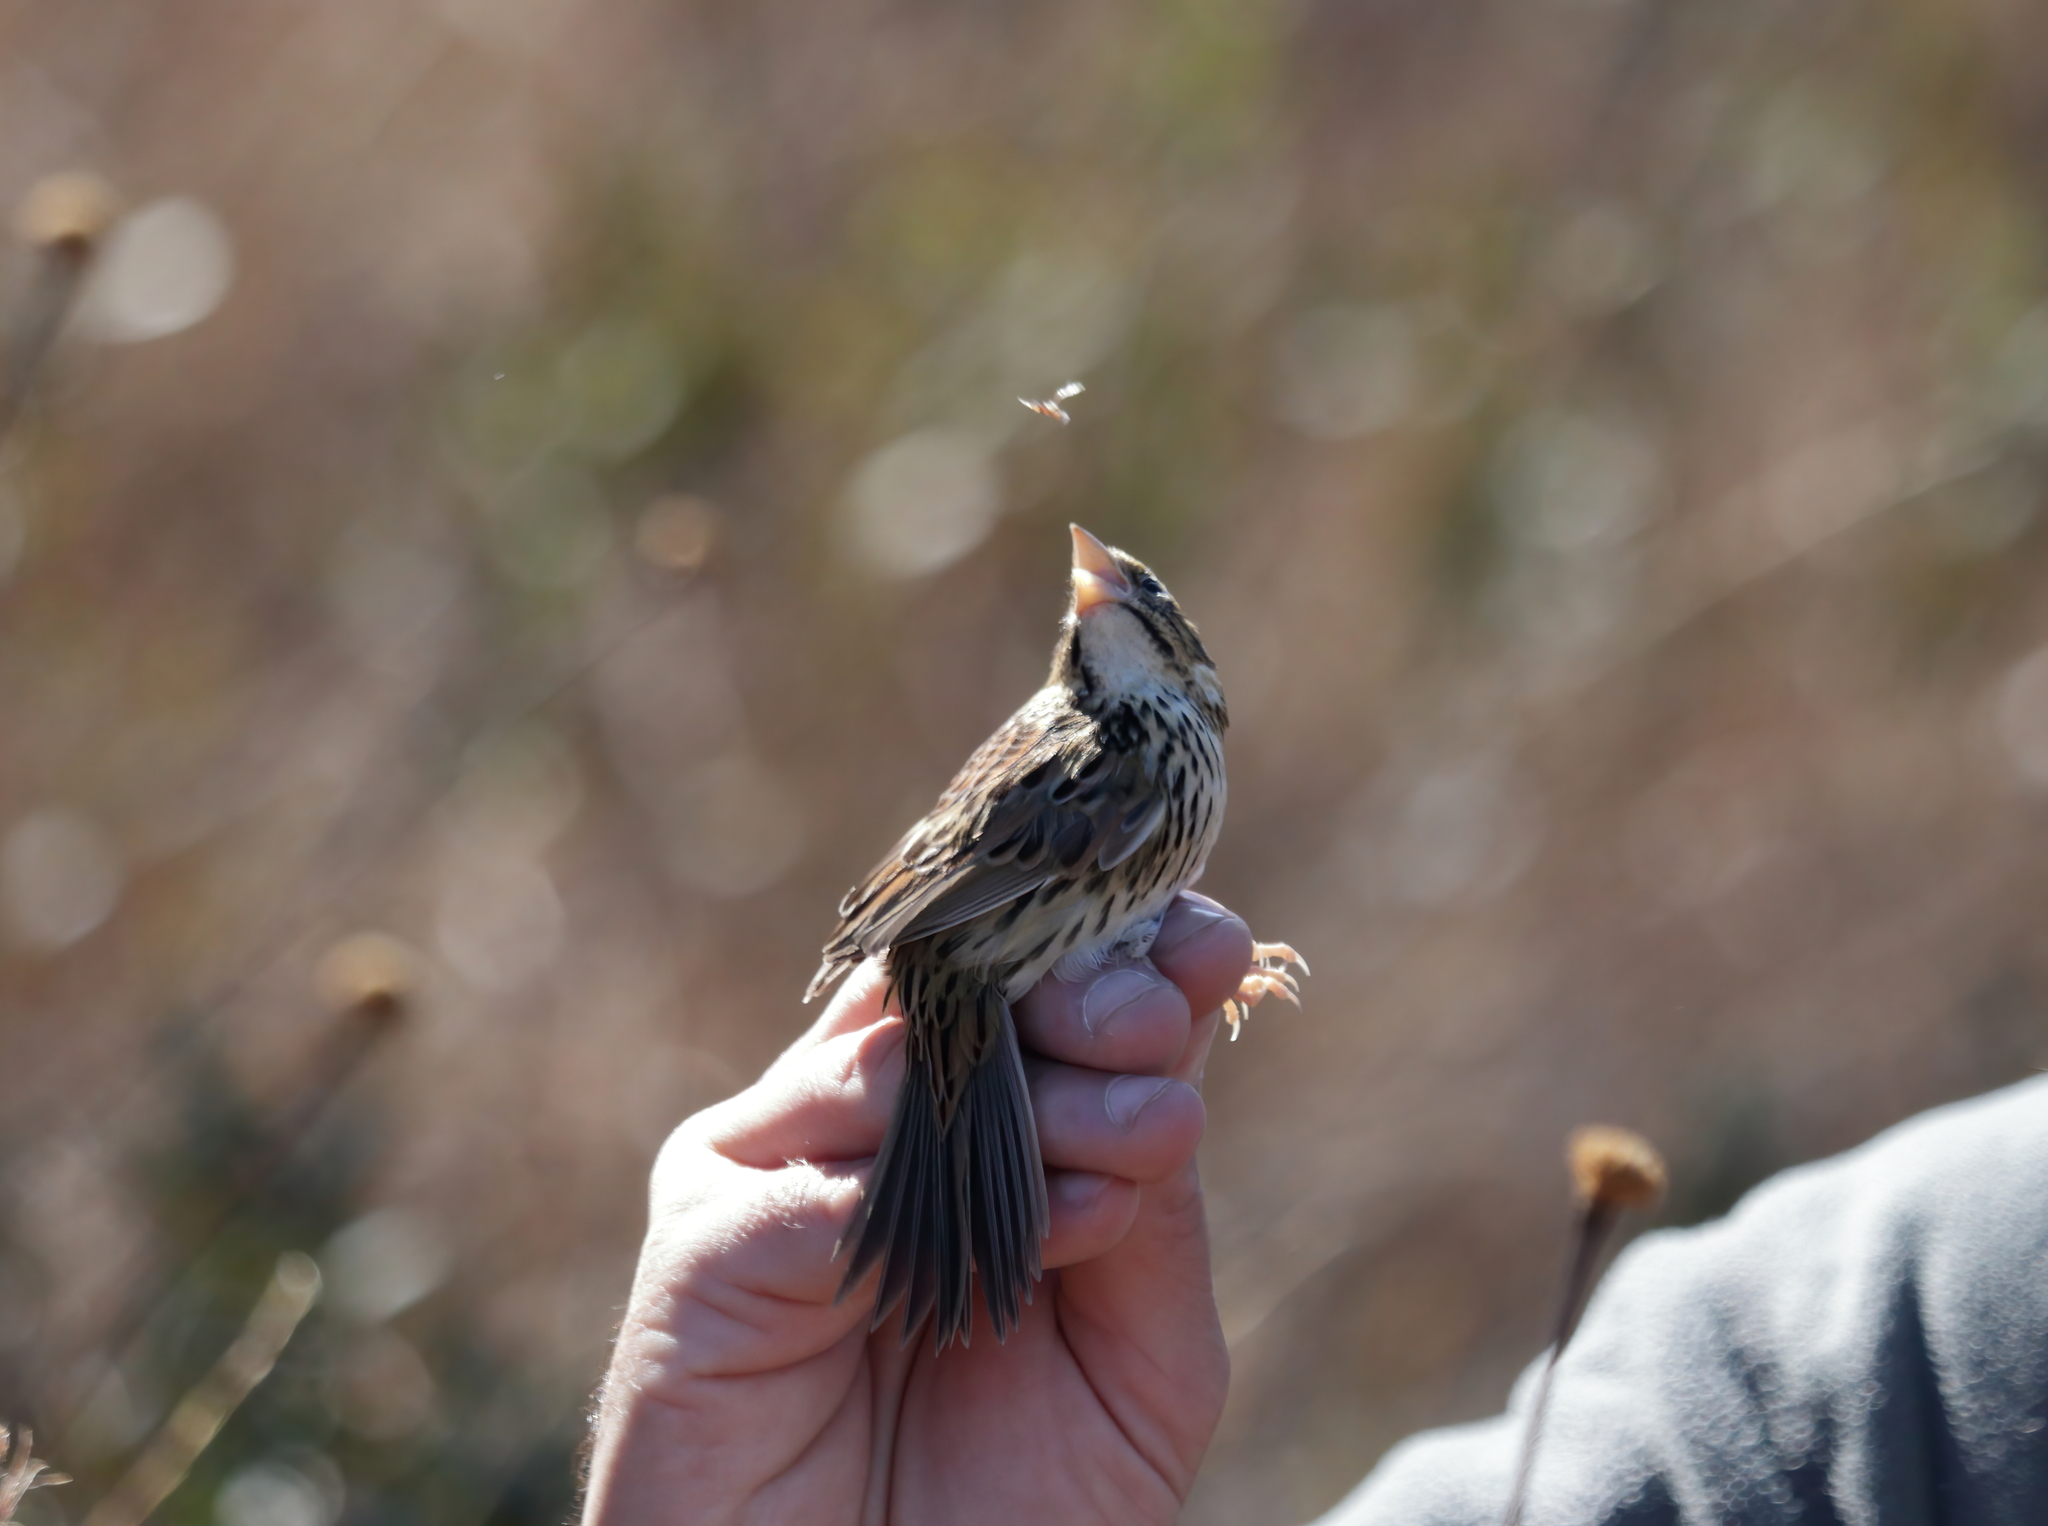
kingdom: Animalia
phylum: Chordata
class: Aves
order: Passeriformes
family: Passerellidae
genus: Centronyx
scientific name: Centronyx henslowii
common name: Henslow's sparrow
